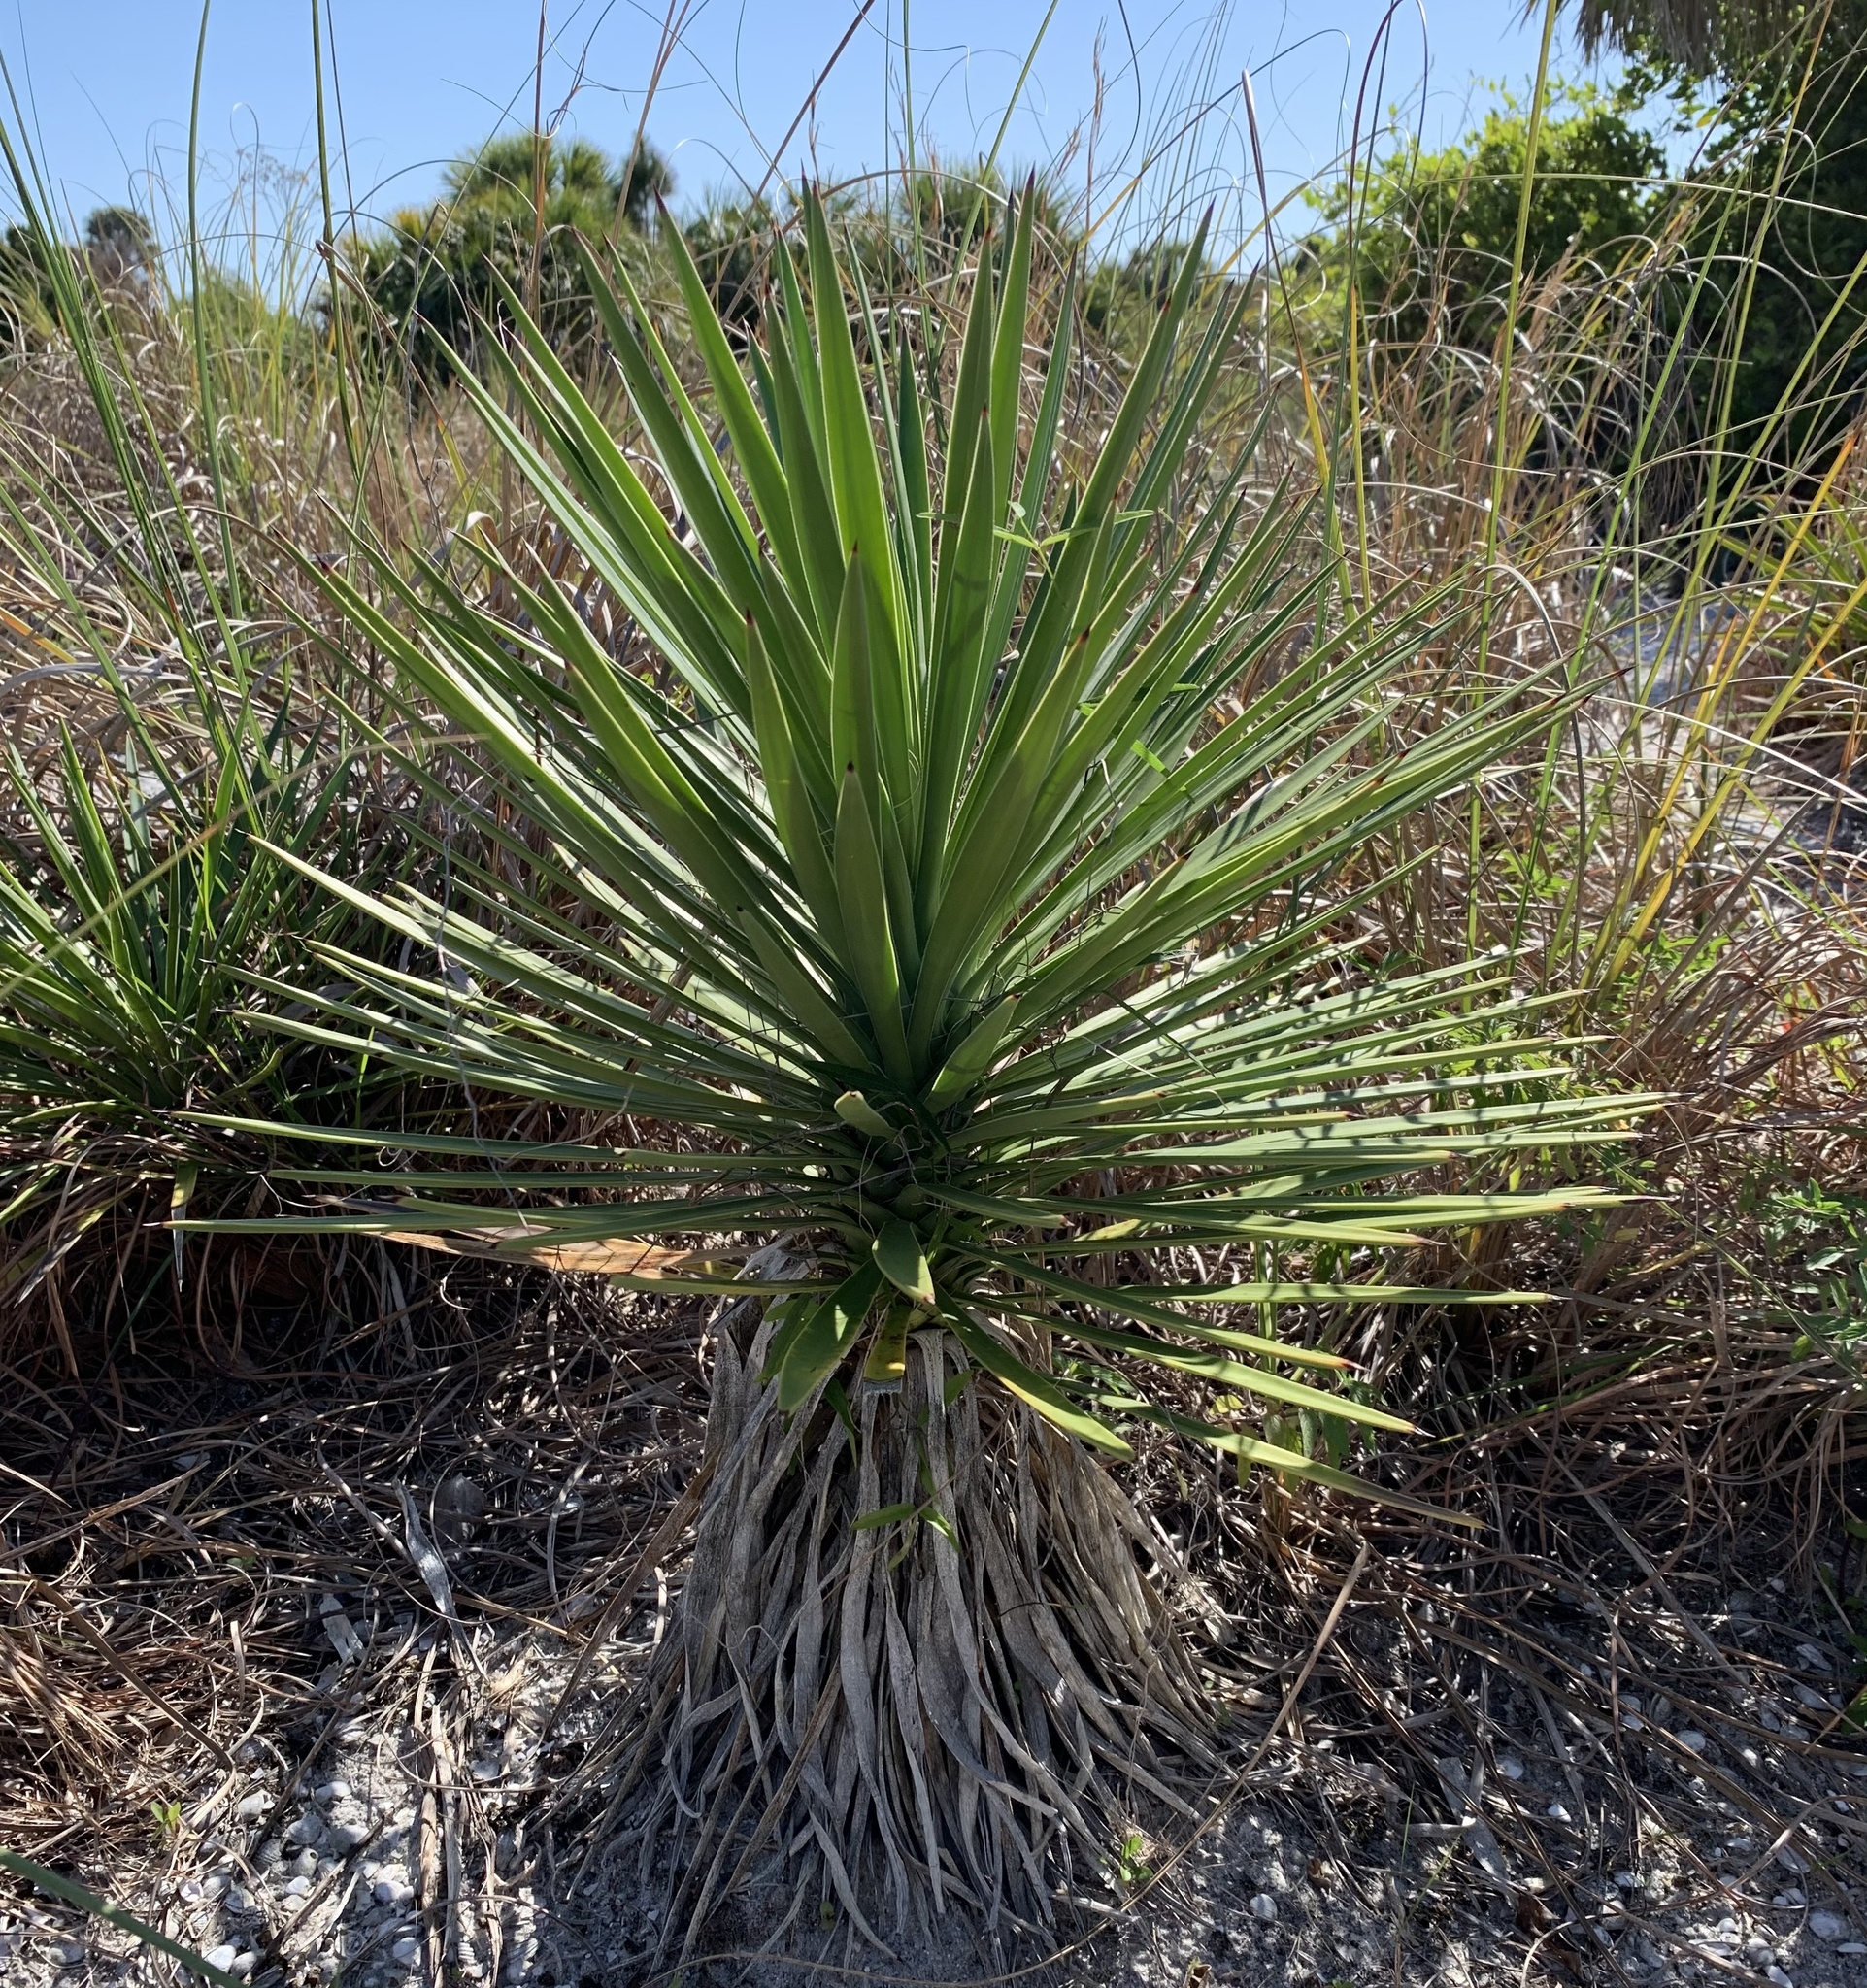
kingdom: Plantae
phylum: Tracheophyta
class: Liliopsida
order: Asparagales
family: Asparagaceae
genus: Yucca
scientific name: Yucca aloifolia
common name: Aloe yucca
